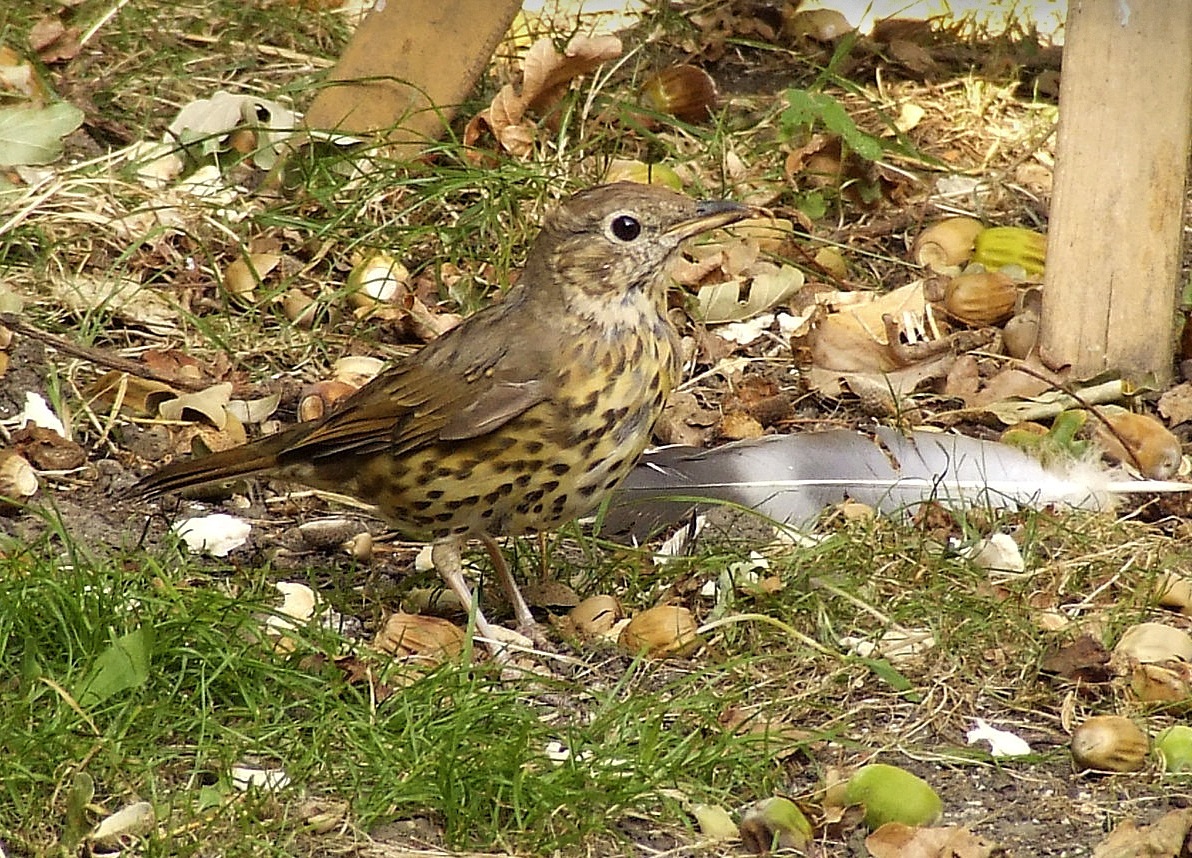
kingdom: Animalia
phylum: Chordata
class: Aves
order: Passeriformes
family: Turdidae
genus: Turdus
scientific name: Turdus philomelos
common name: Song thrush
